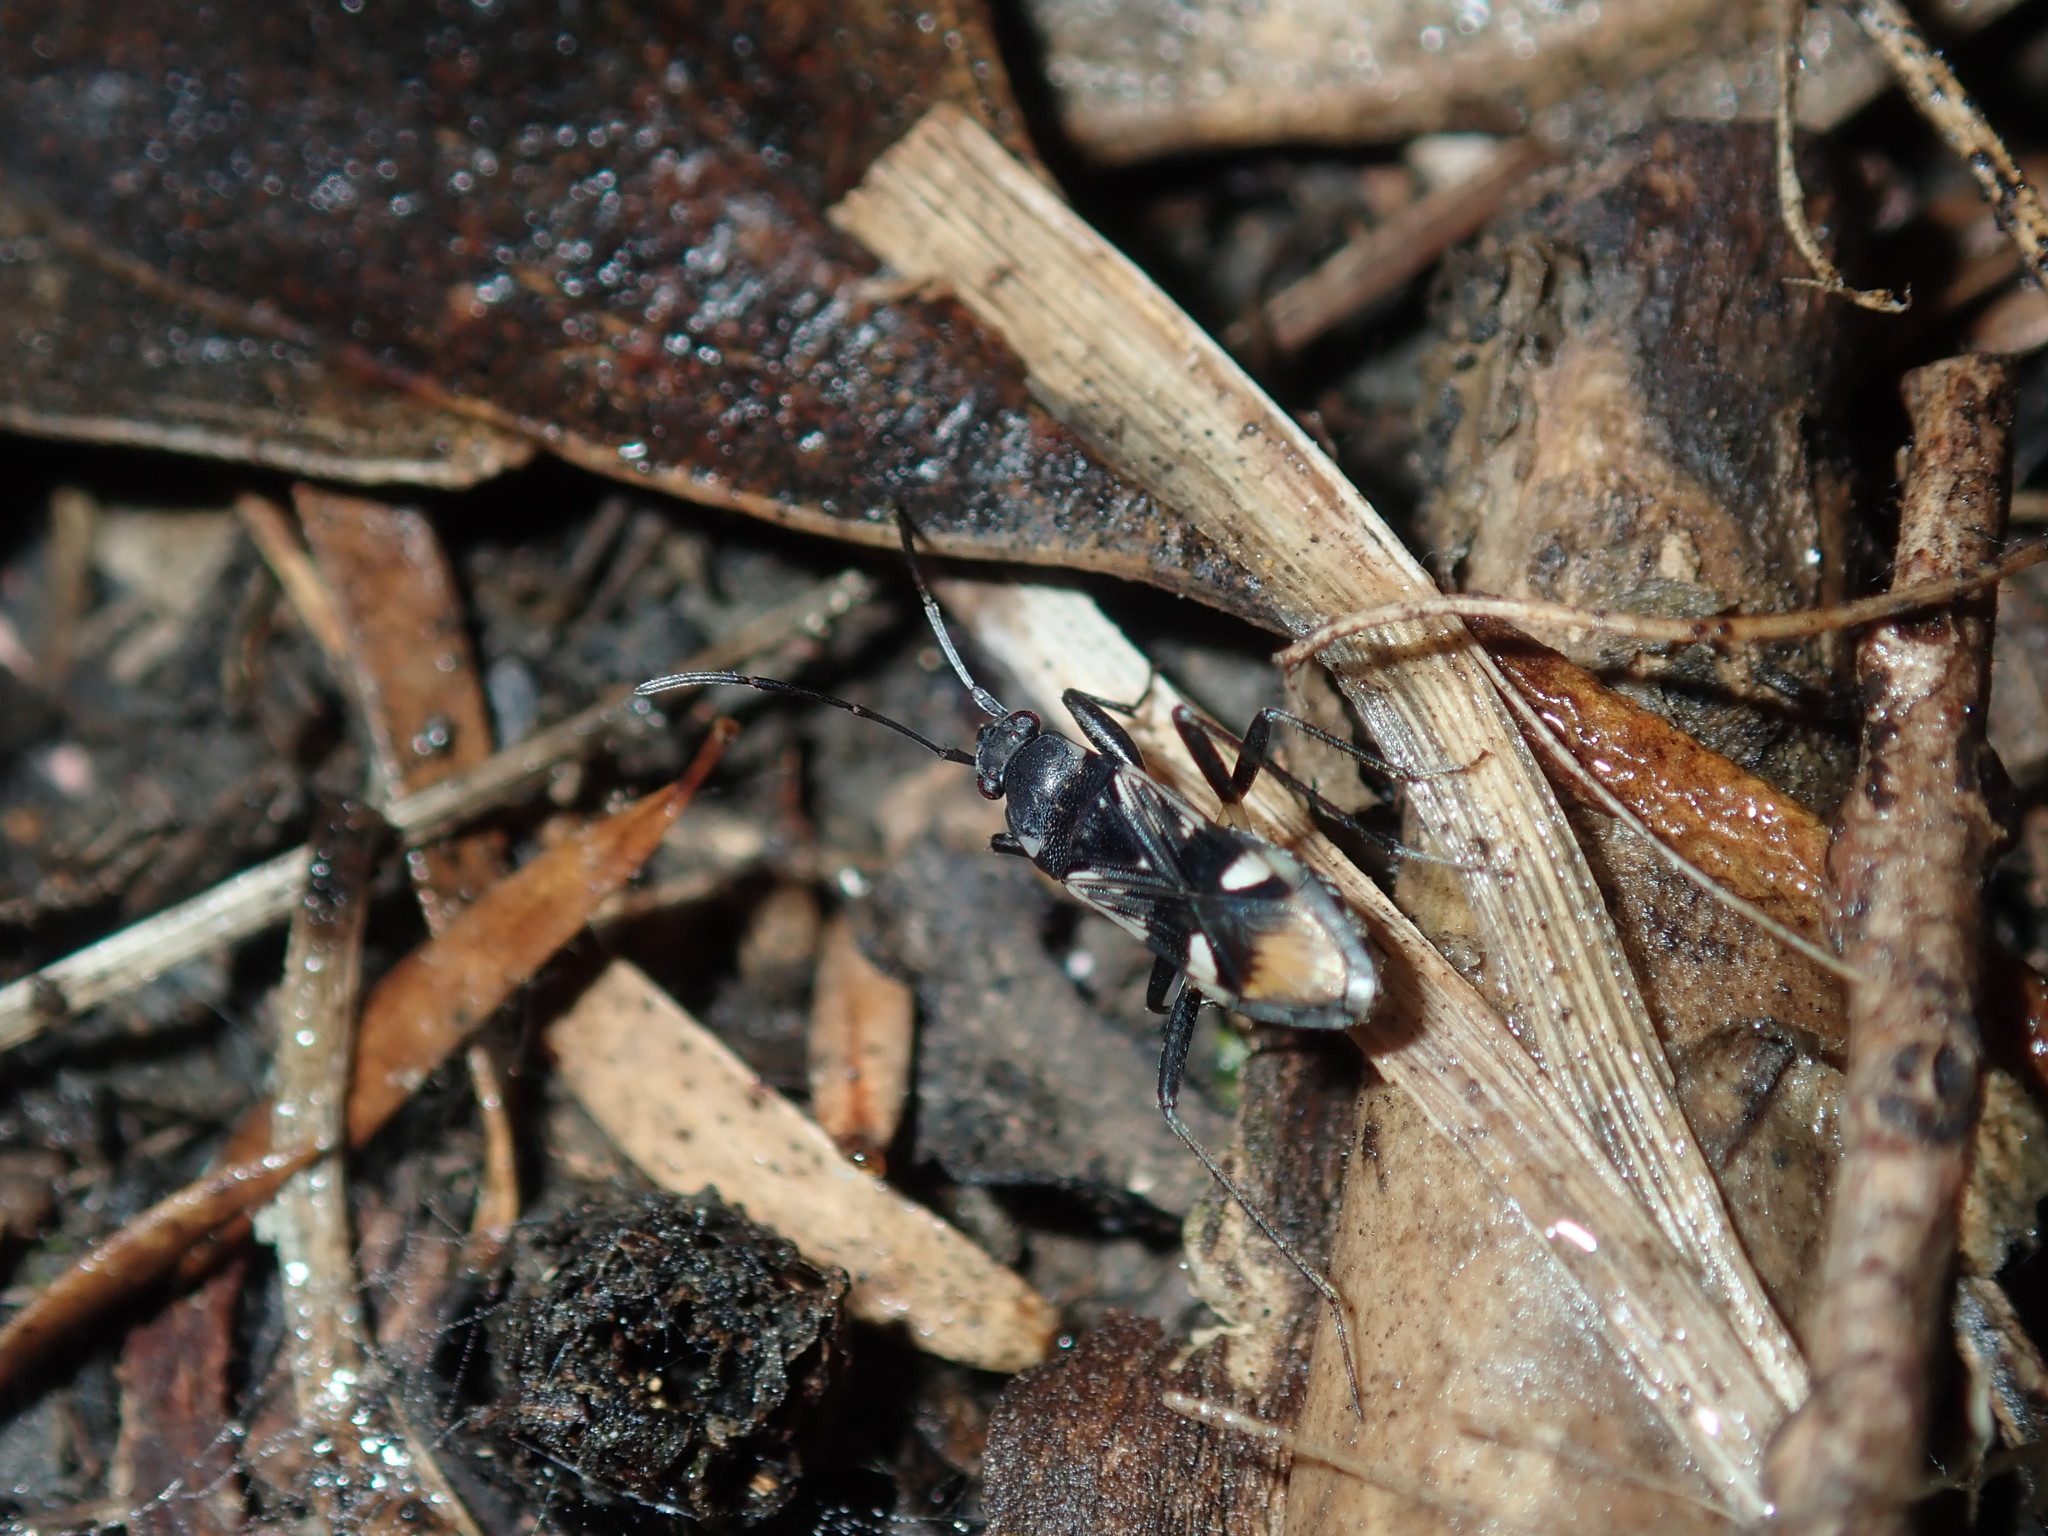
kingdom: Animalia
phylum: Arthropoda
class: Insecta
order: Hemiptera
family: Rhyparochromidae
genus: Dieuches
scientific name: Dieuches maculicollis
